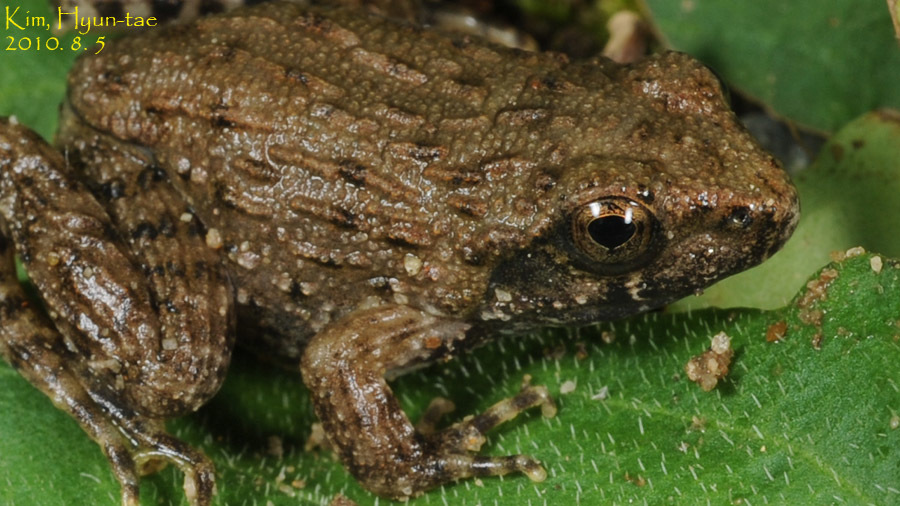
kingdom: Animalia
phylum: Chordata
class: Amphibia
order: Anura
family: Ranidae
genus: Glandirana
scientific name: Glandirana emeljanovi
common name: Northeast china rough-skinned frog
